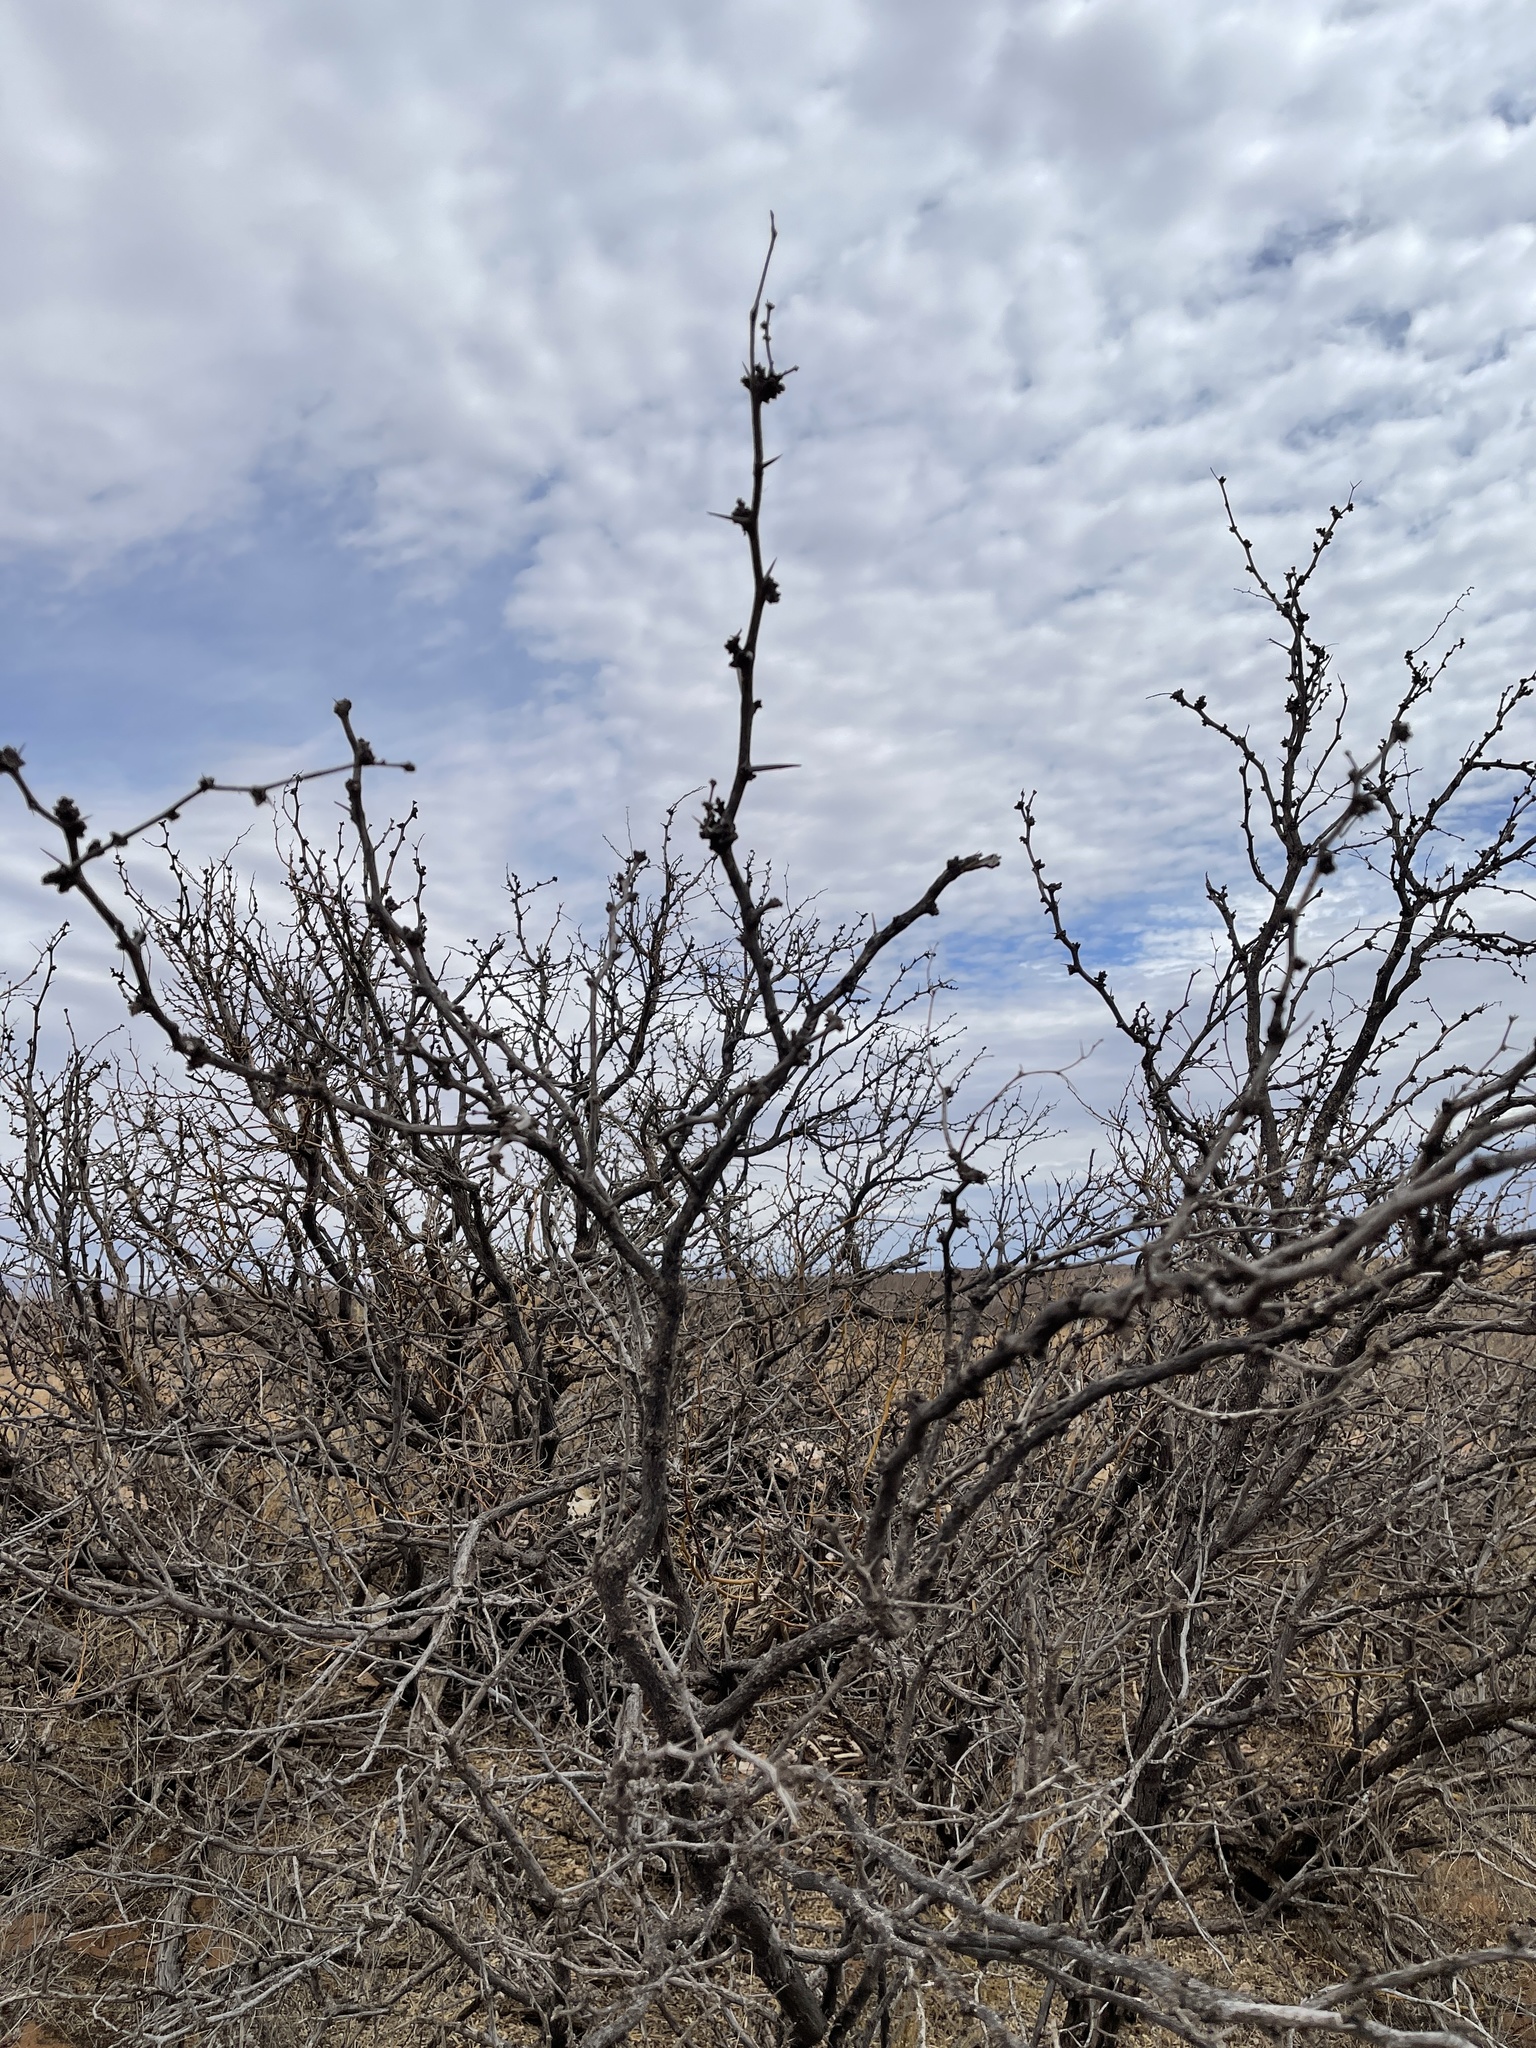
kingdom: Plantae
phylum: Tracheophyta
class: Magnoliopsida
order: Fabales
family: Fabaceae
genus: Prosopis
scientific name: Prosopis glandulosa
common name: Honey mesquite
